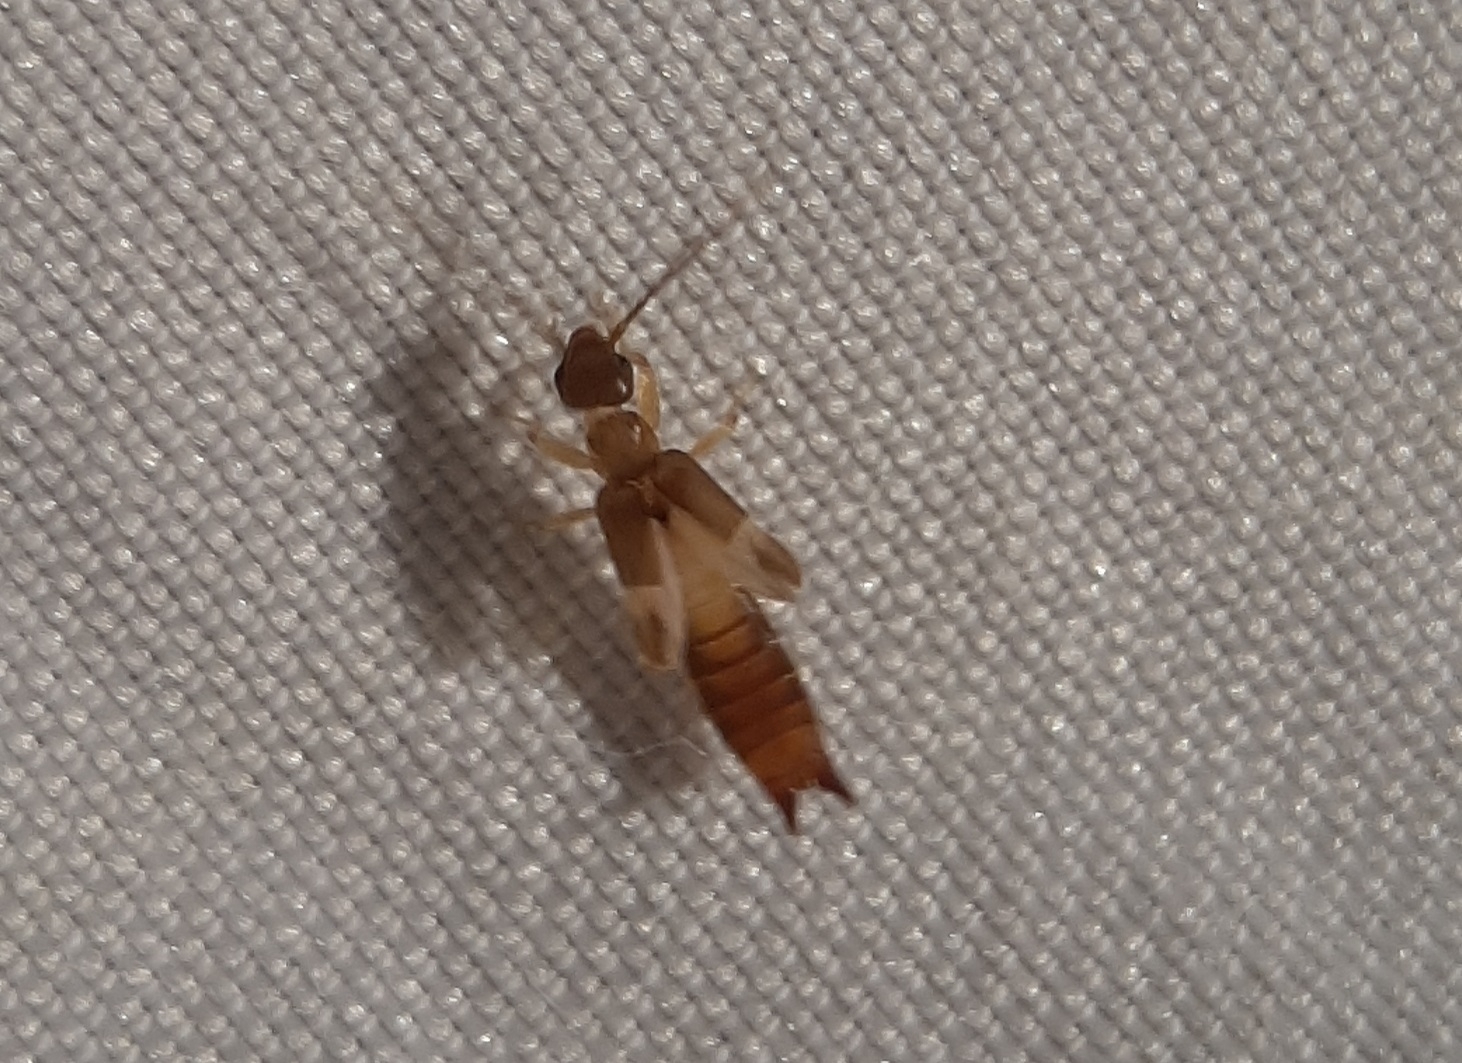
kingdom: Animalia
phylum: Arthropoda
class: Insecta
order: Dermaptera
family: Spongiphoridae
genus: Labia
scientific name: Labia minor
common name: Lesser earwig
